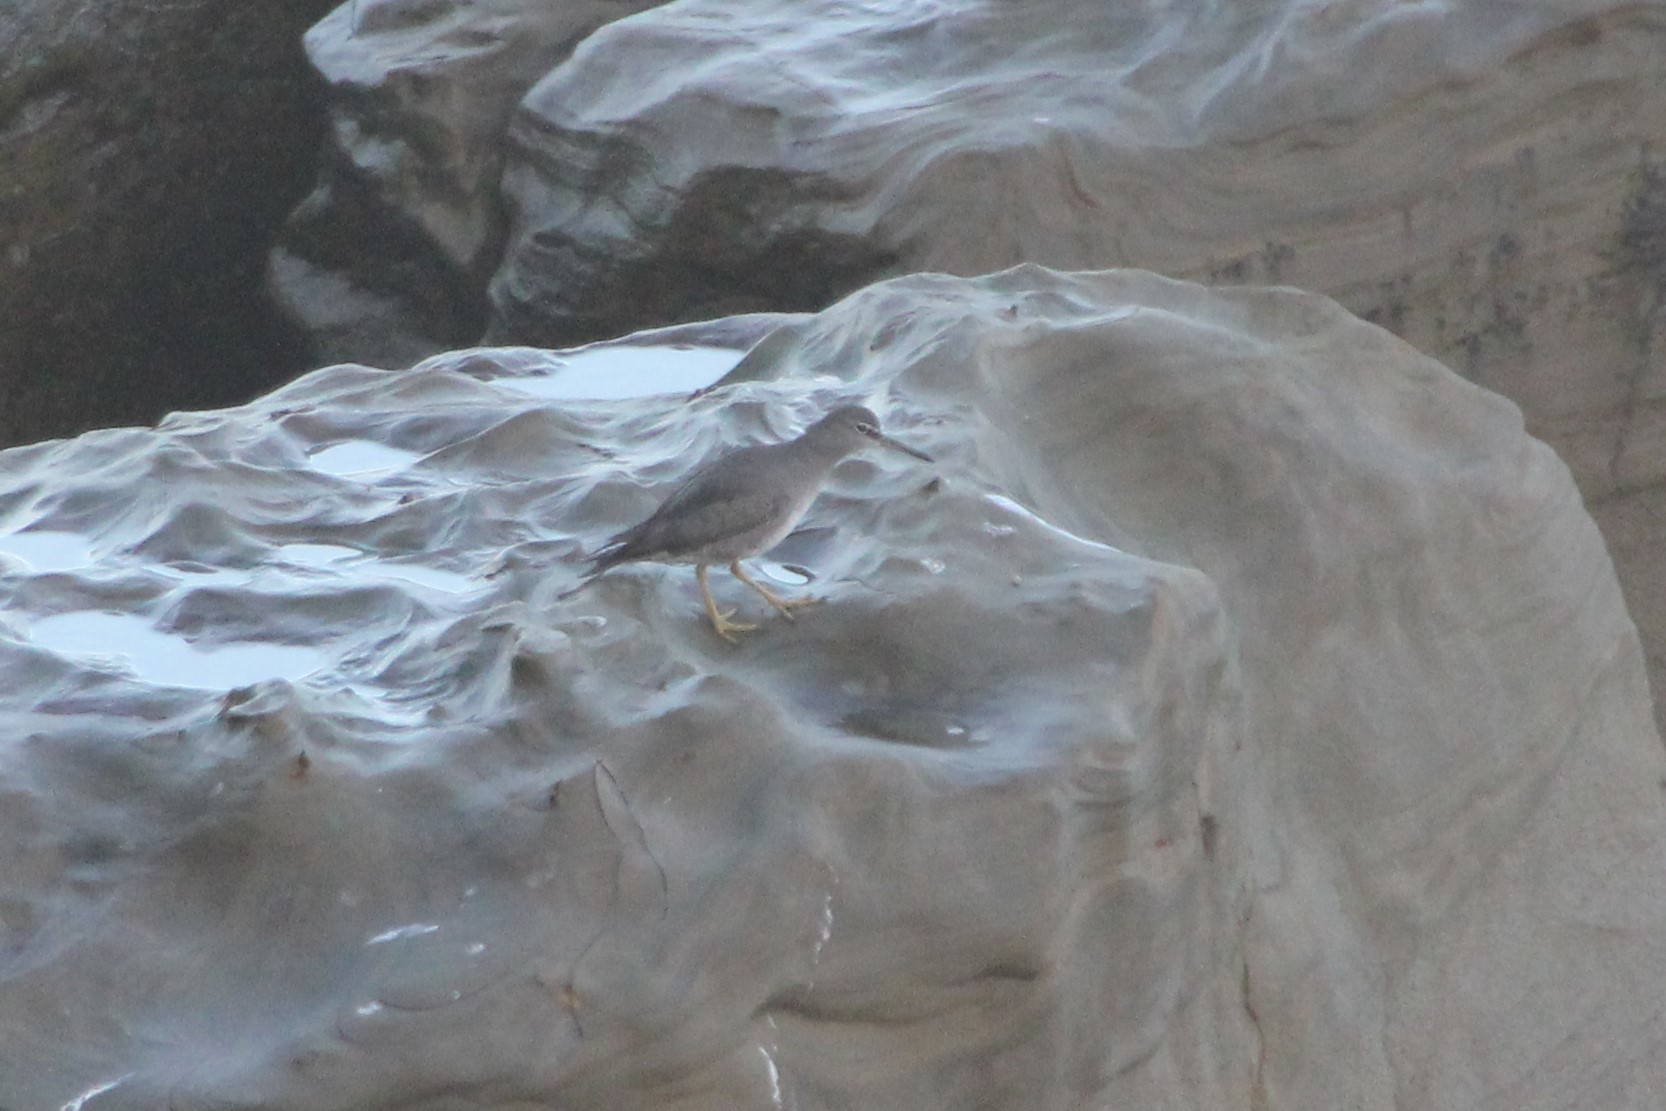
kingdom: Animalia
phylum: Chordata
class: Aves
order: Charadriiformes
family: Scolopacidae
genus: Tringa
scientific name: Tringa incana
